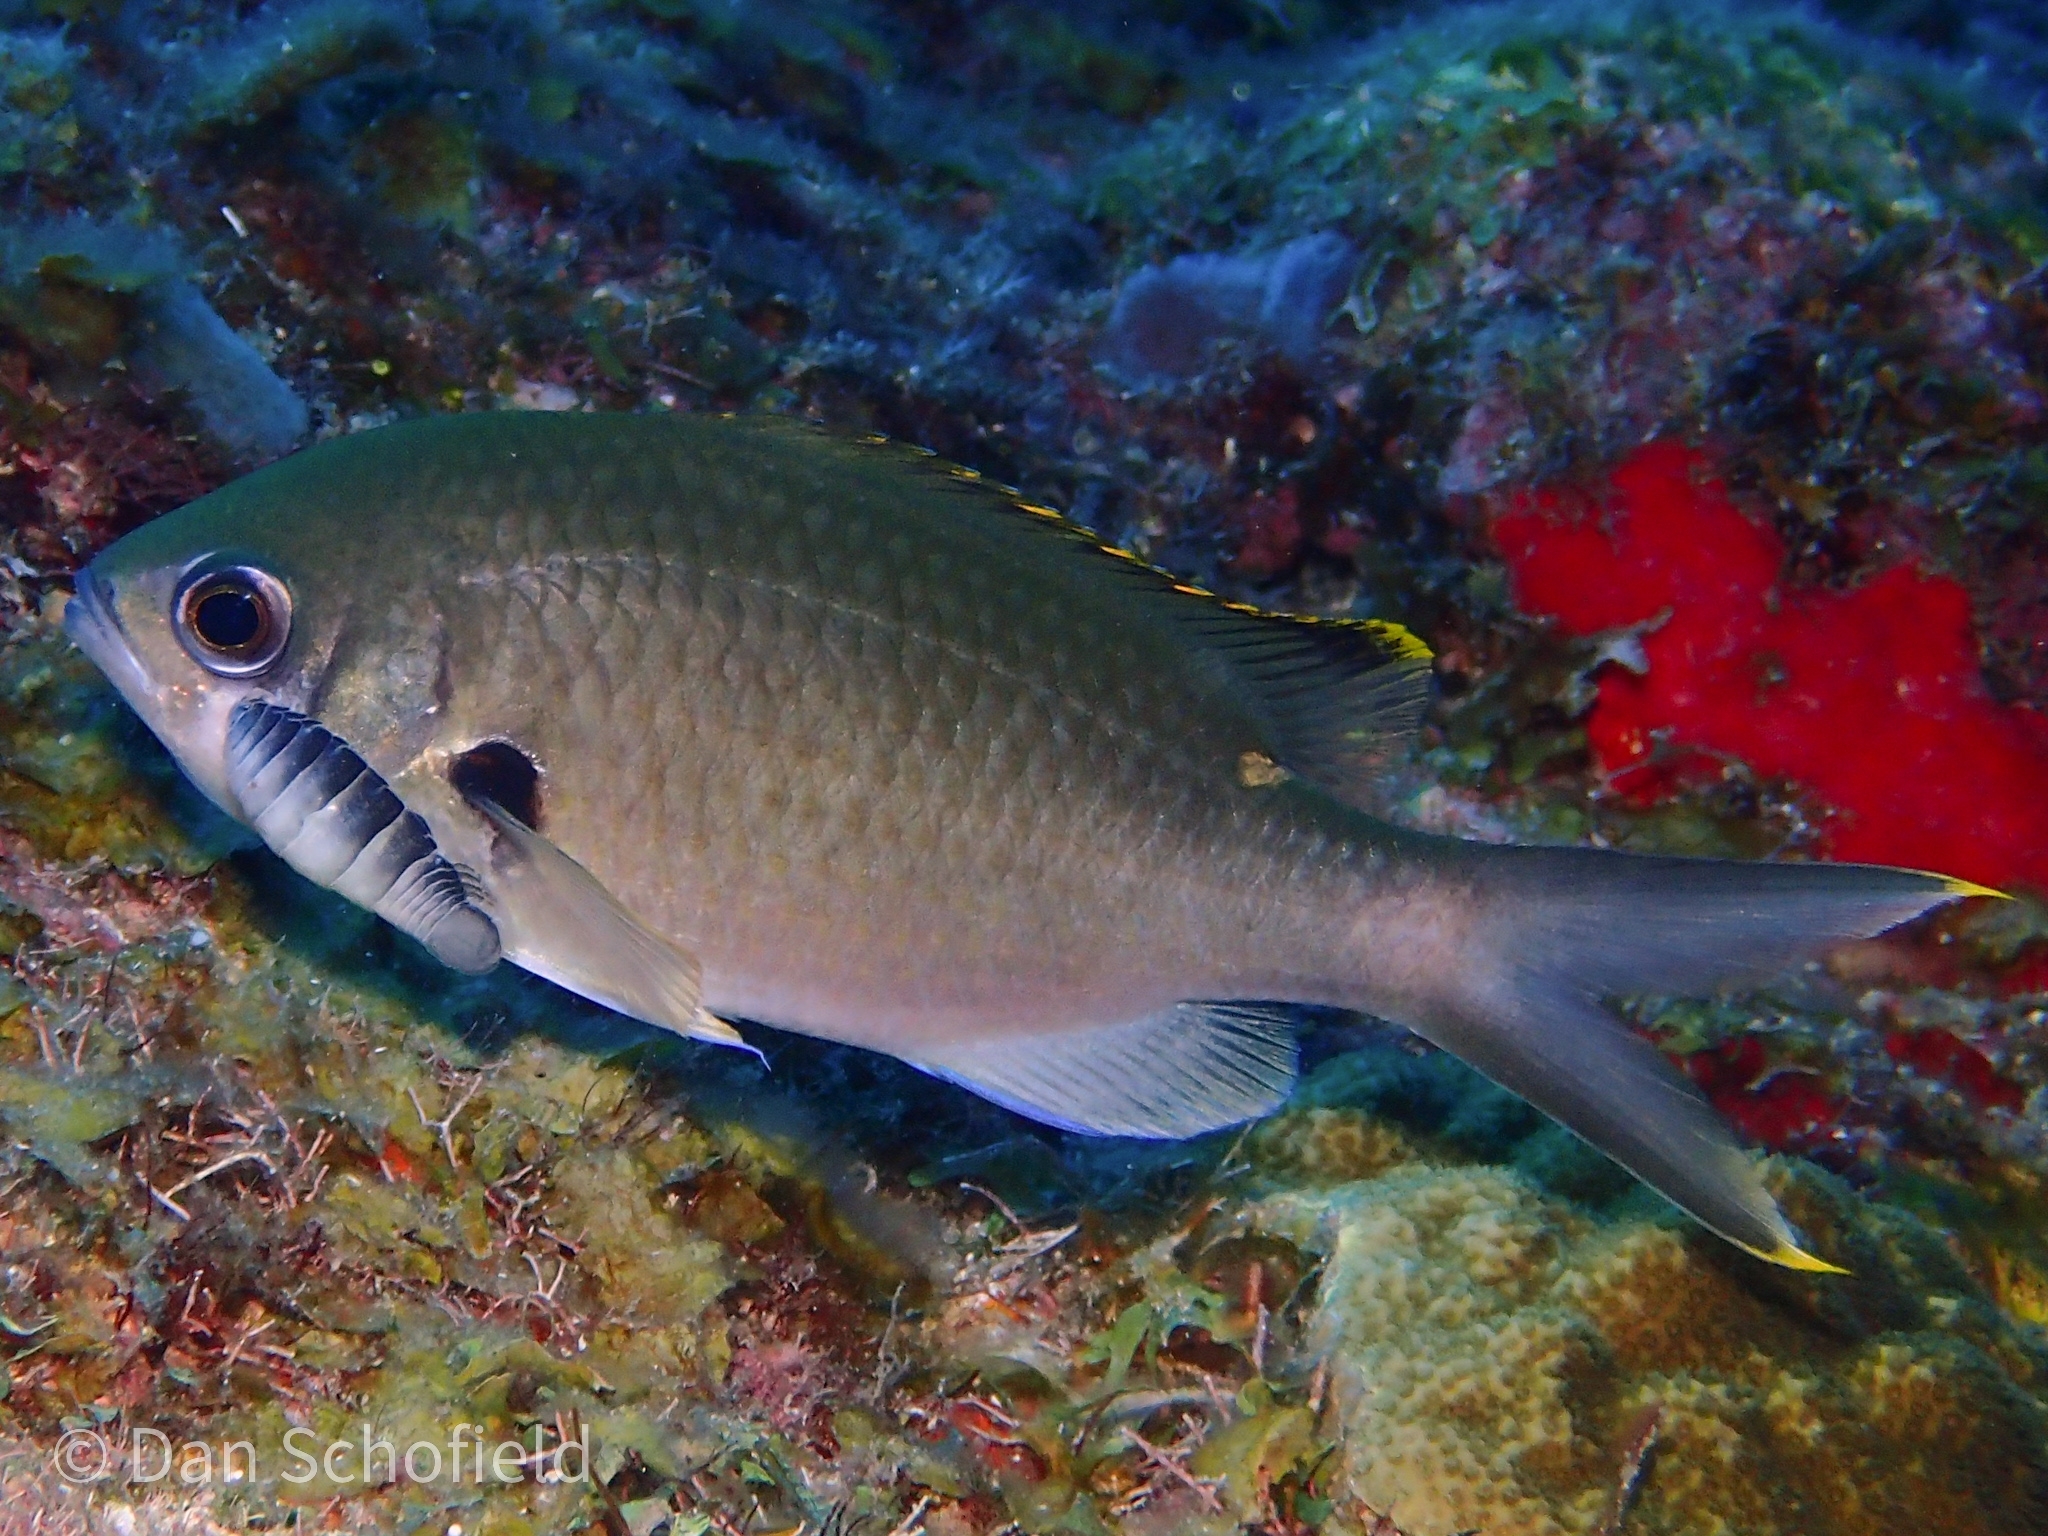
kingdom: Animalia
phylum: Chordata
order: Perciformes
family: Pomacentridae
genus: Chromis
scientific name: Chromis multilineata
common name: Brown chromis
